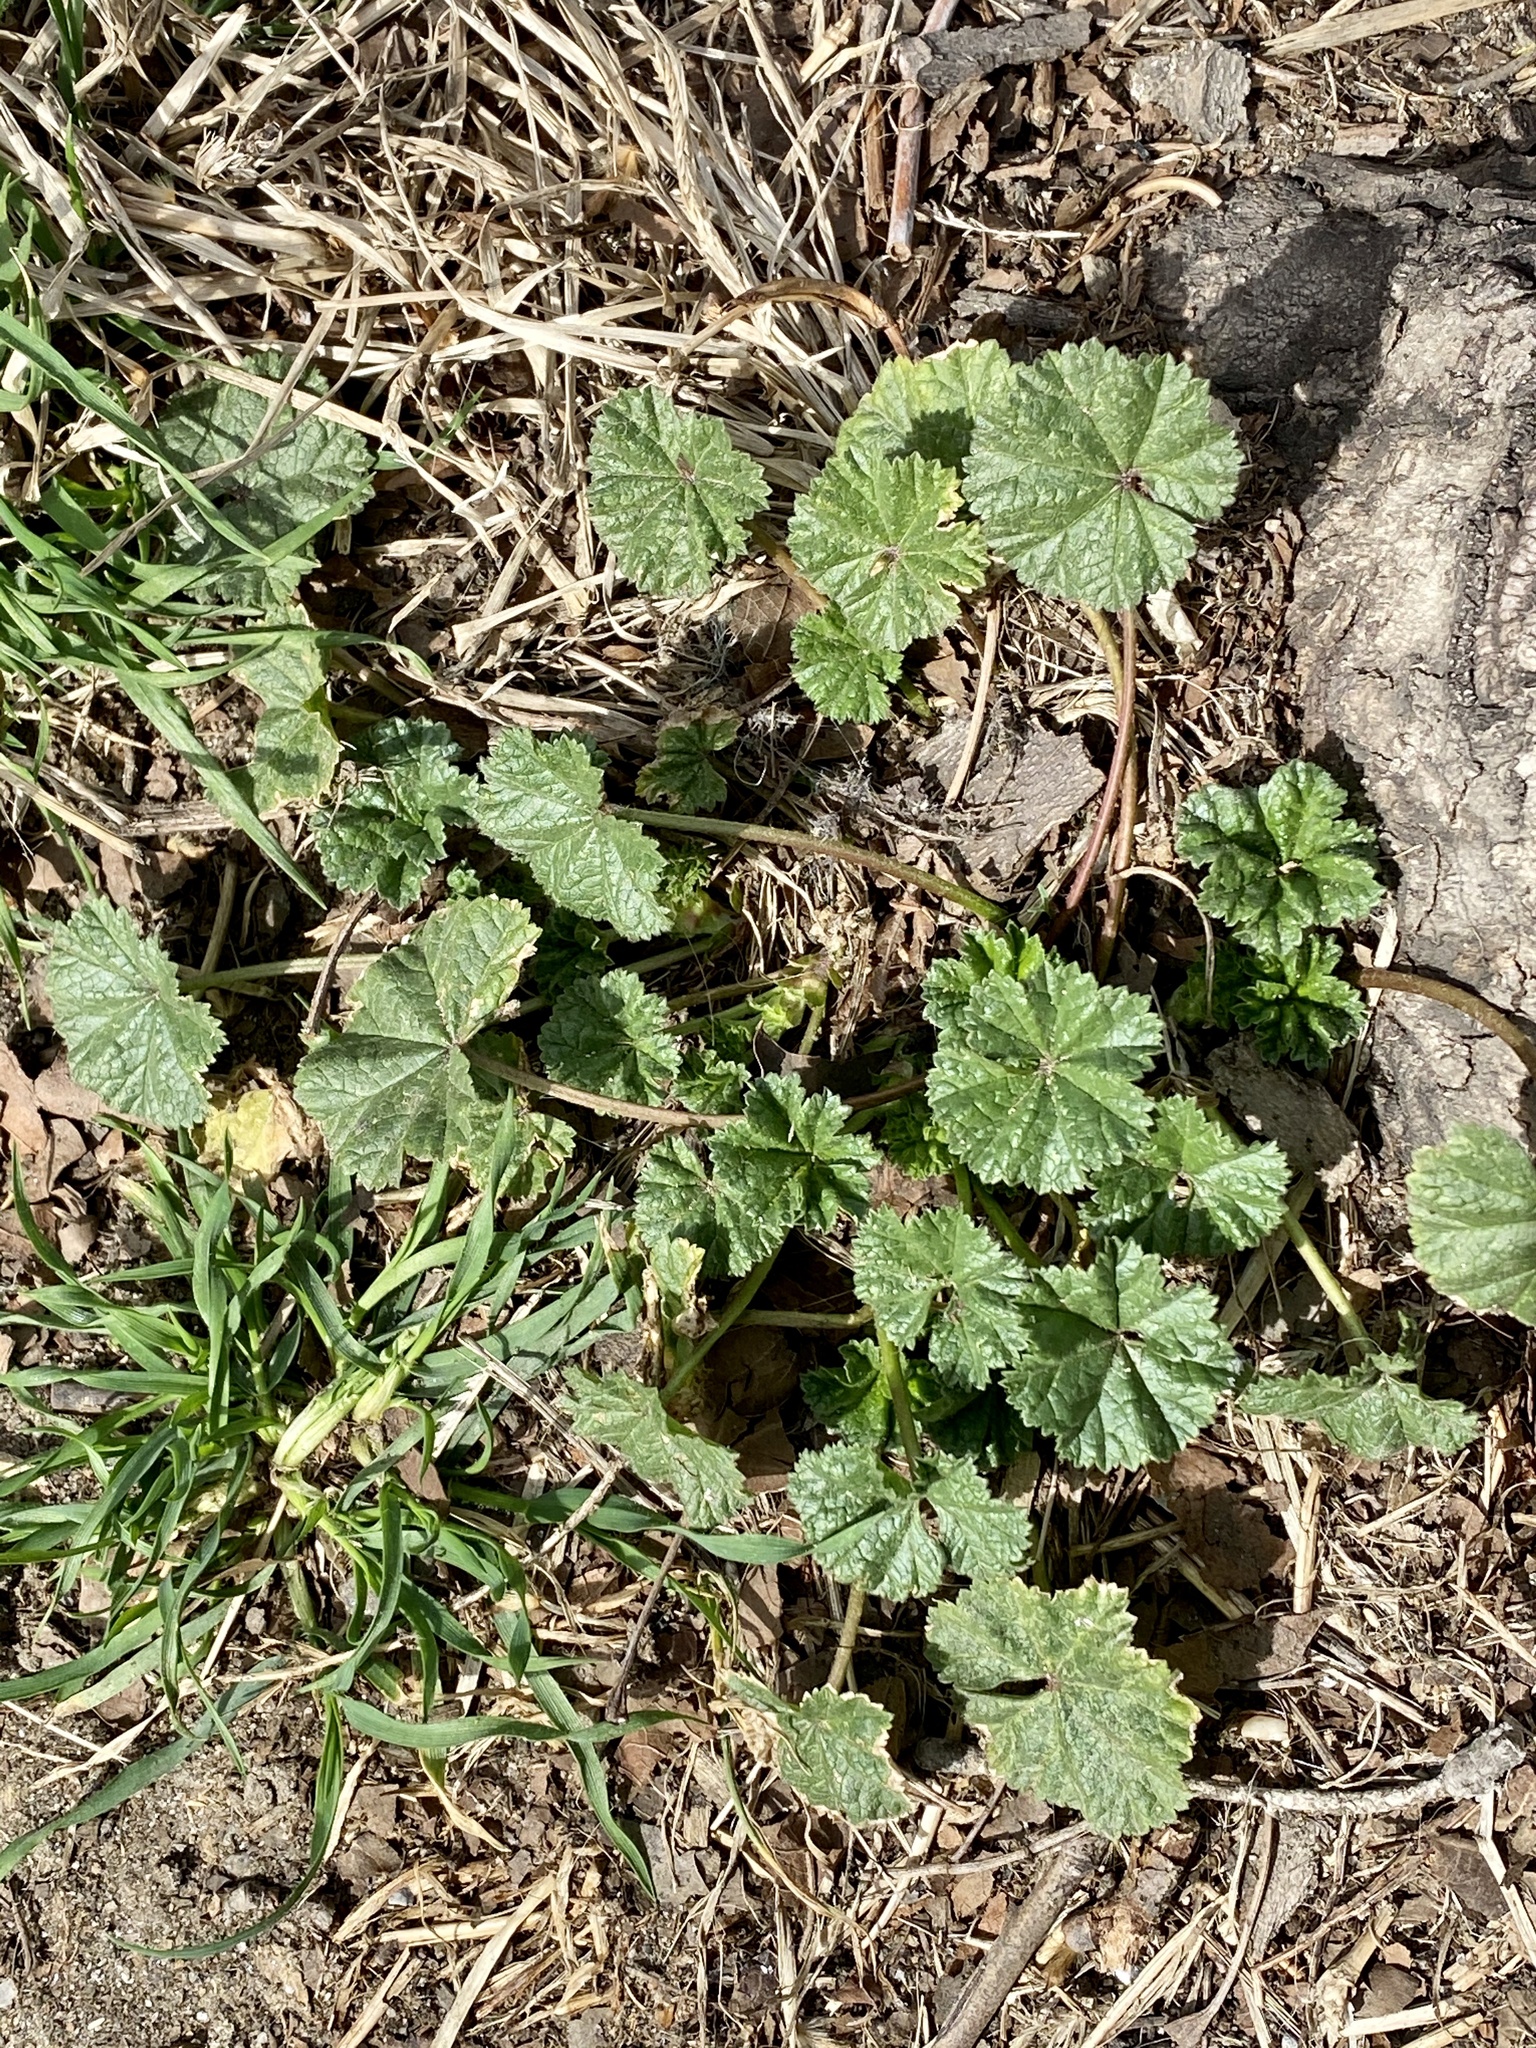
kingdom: Plantae
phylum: Tracheophyta
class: Magnoliopsida
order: Malvales
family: Malvaceae
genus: Malva
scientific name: Malva neglecta
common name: Common mallow
